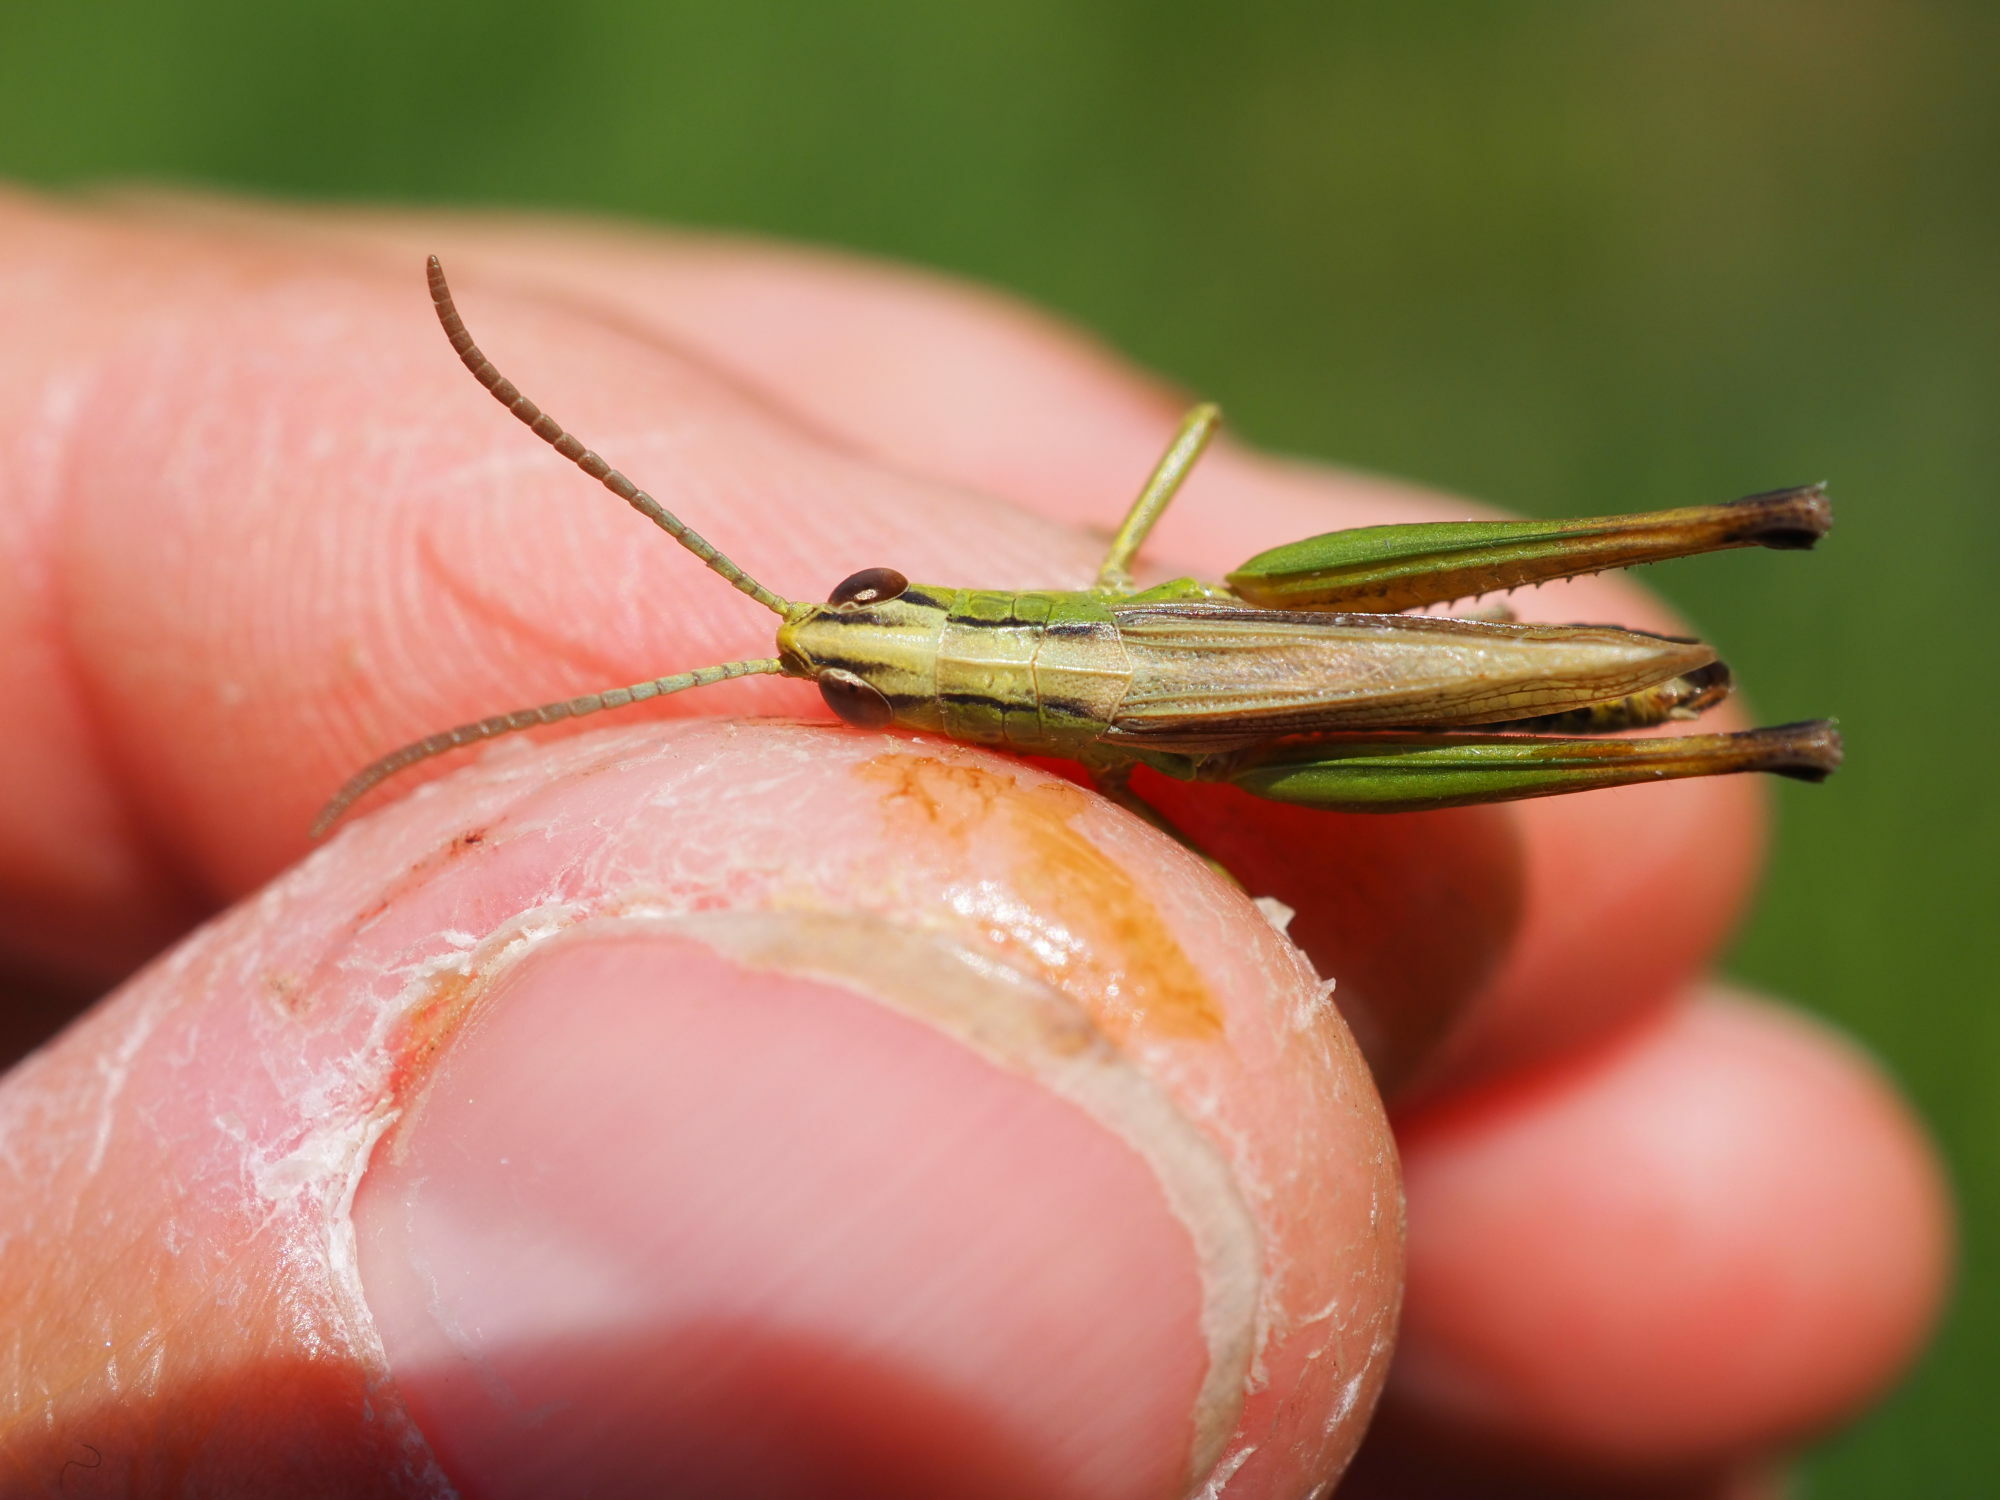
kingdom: Animalia
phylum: Arthropoda
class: Insecta
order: Orthoptera
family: Acrididae
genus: Pseudochorthippus
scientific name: Pseudochorthippus parallelus
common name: Meadow grasshopper
